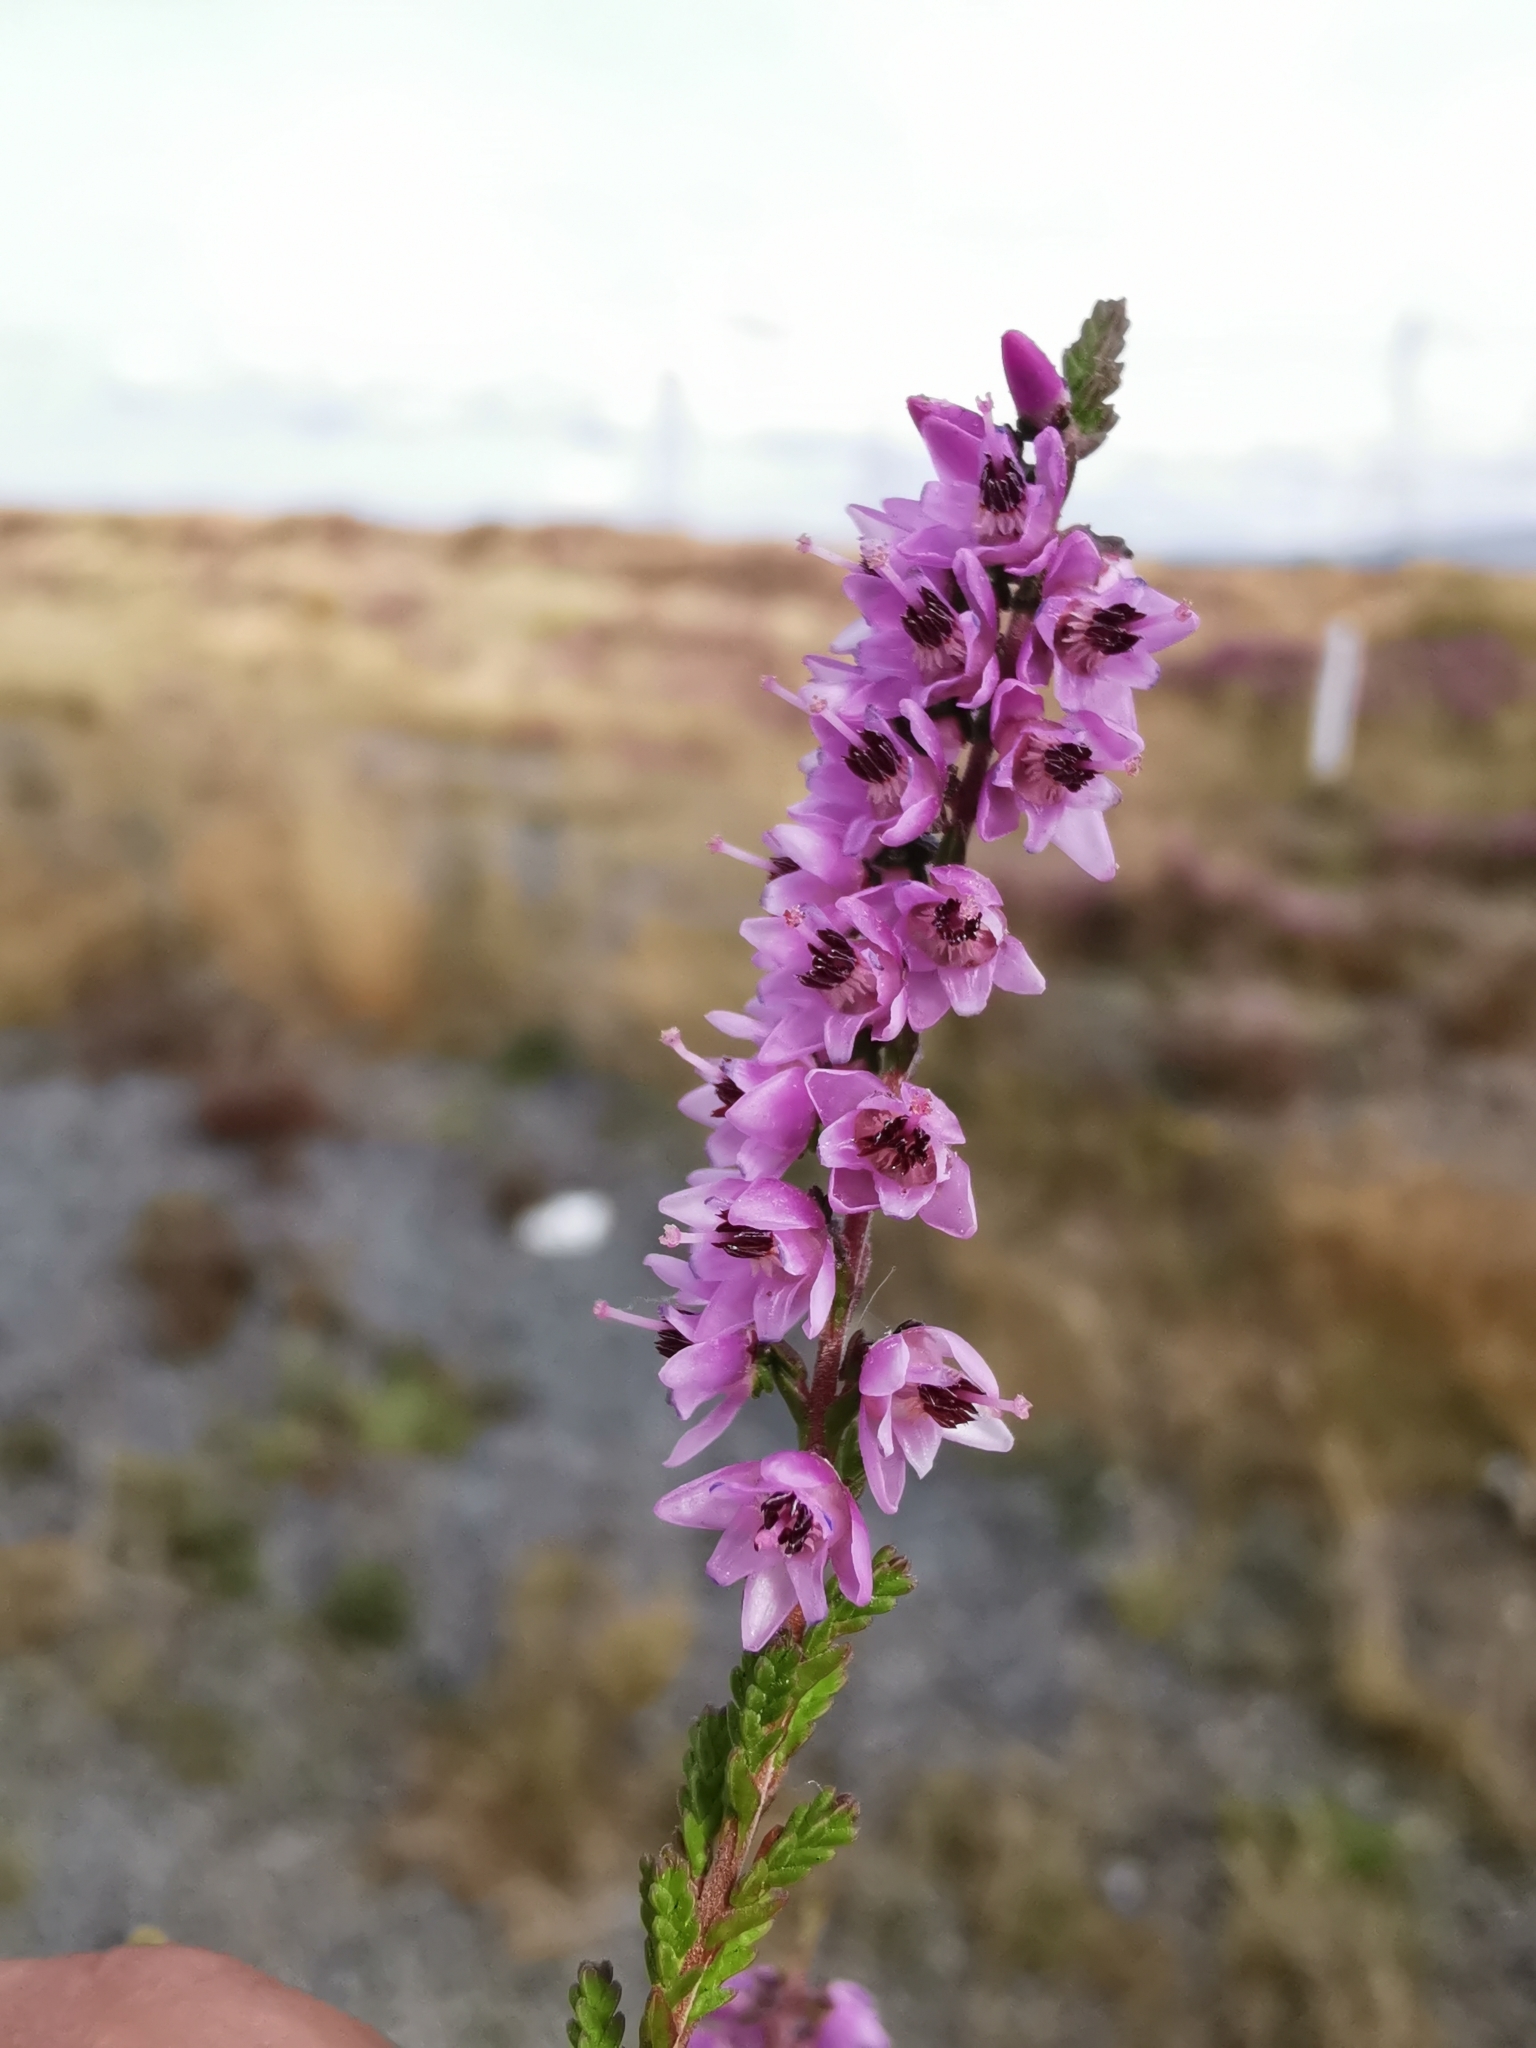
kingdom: Plantae
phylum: Tracheophyta
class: Magnoliopsida
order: Ericales
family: Ericaceae
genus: Calluna
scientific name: Calluna vulgaris
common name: Heather
